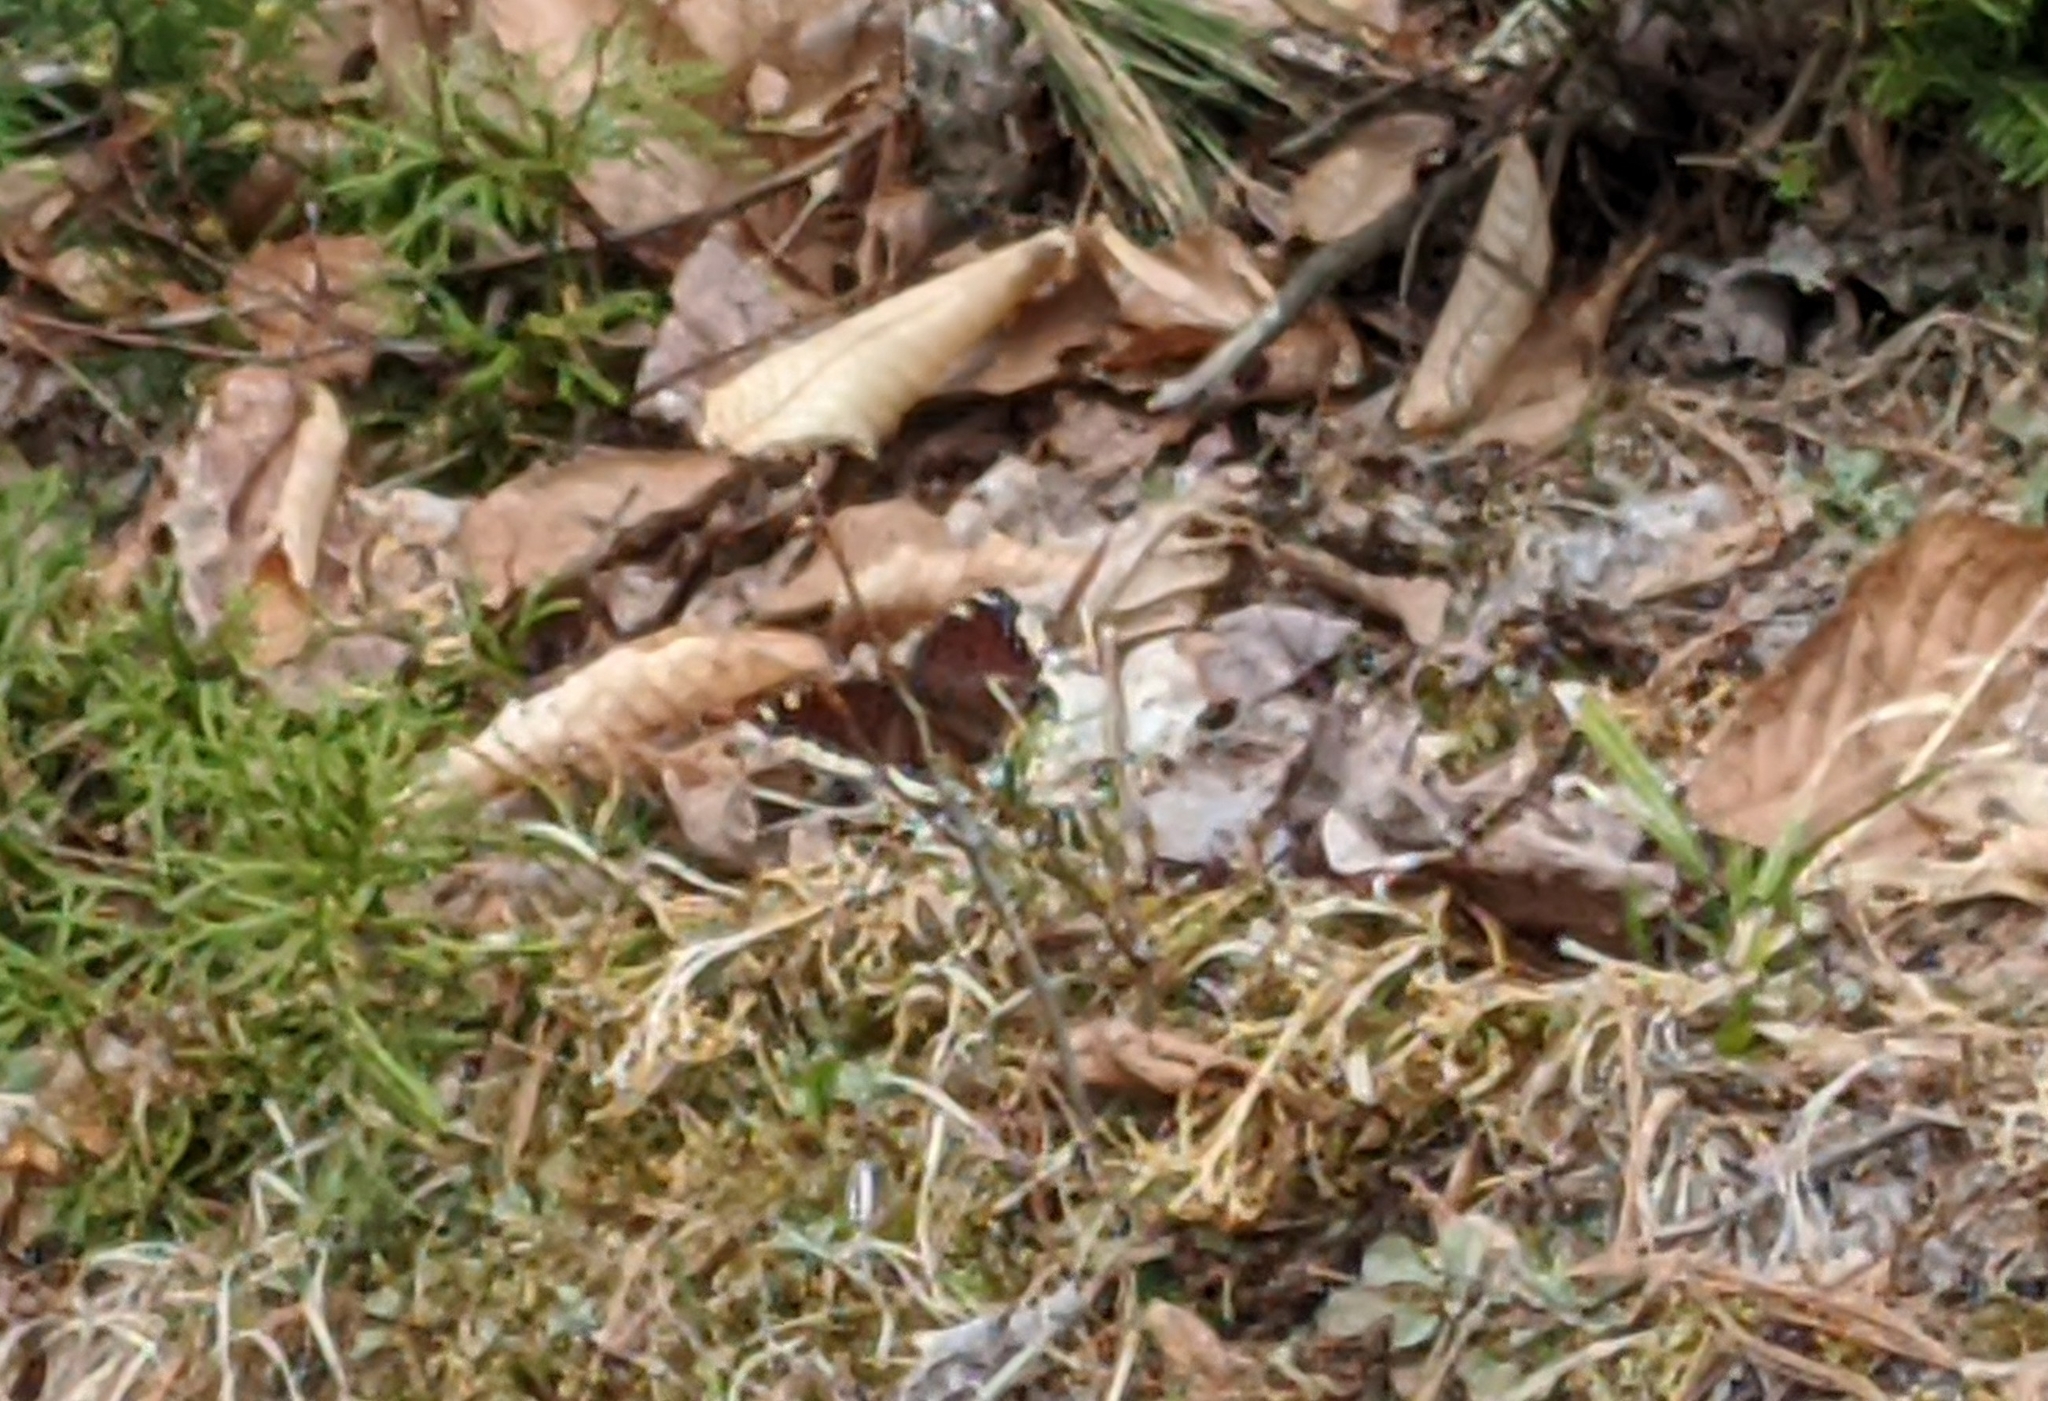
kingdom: Animalia
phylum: Arthropoda
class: Insecta
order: Lepidoptera
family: Nymphalidae
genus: Nymphalis
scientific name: Nymphalis antiopa
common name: Camberwell beauty
